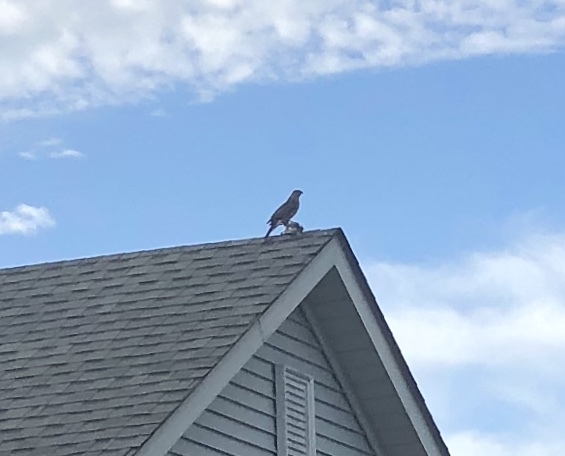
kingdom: Animalia
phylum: Chordata
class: Aves
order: Accipitriformes
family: Accipitridae
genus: Accipiter
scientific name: Accipiter cooperii
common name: Cooper's hawk
